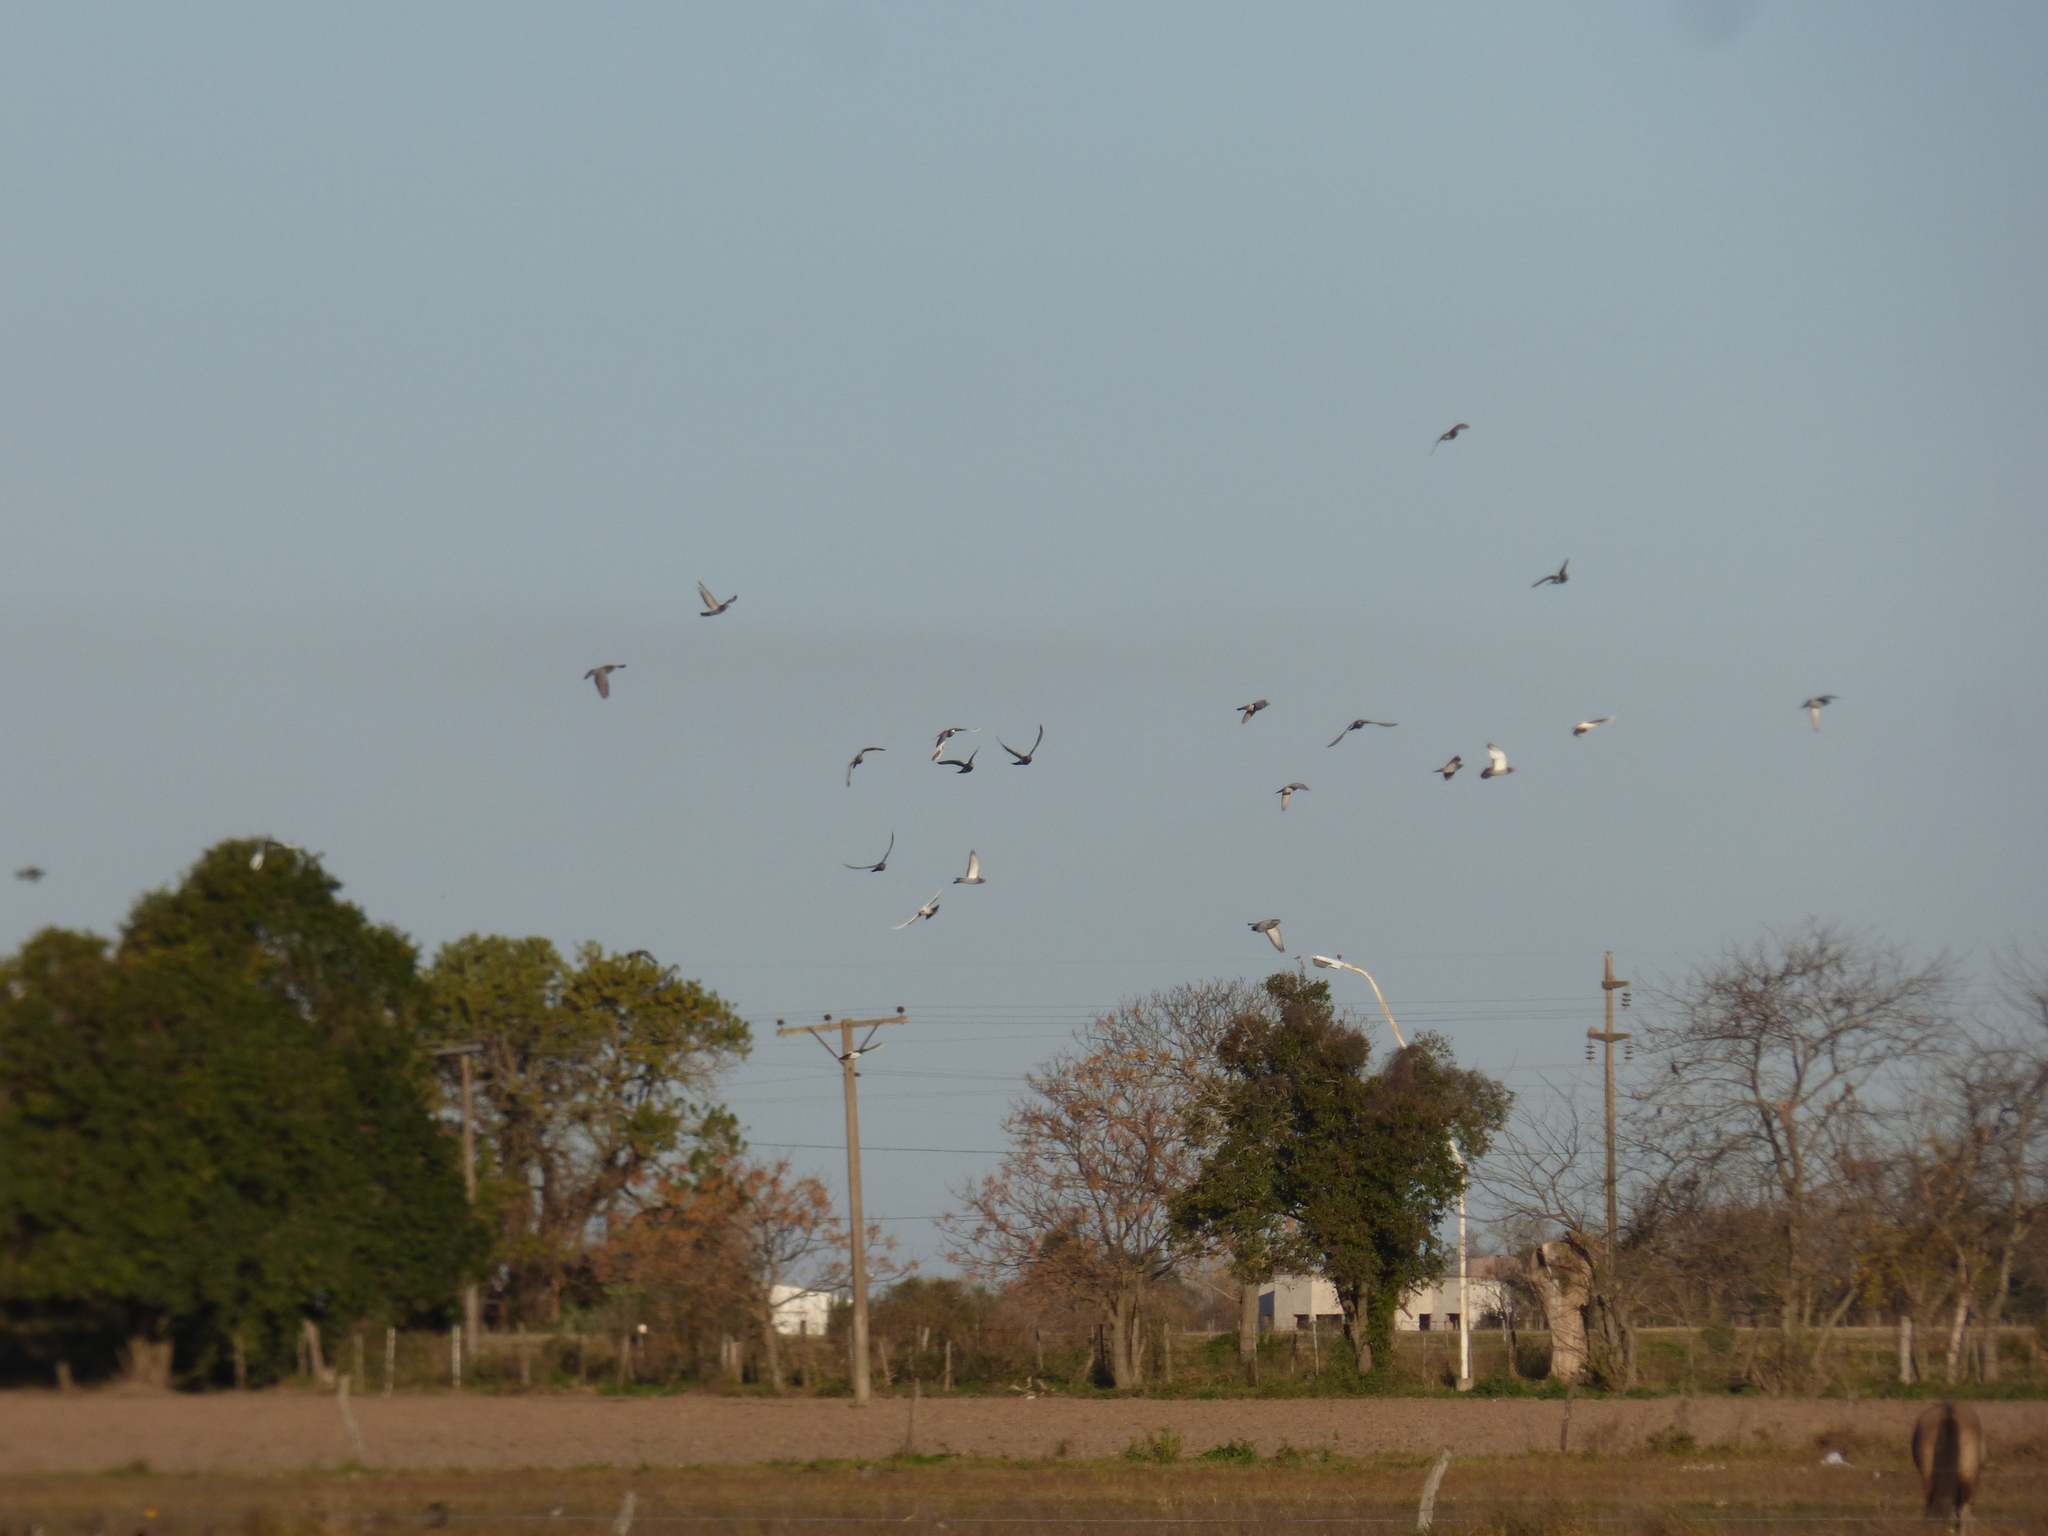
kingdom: Animalia
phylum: Chordata
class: Aves
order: Columbiformes
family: Columbidae
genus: Columba
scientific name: Columba livia
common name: Rock pigeon
